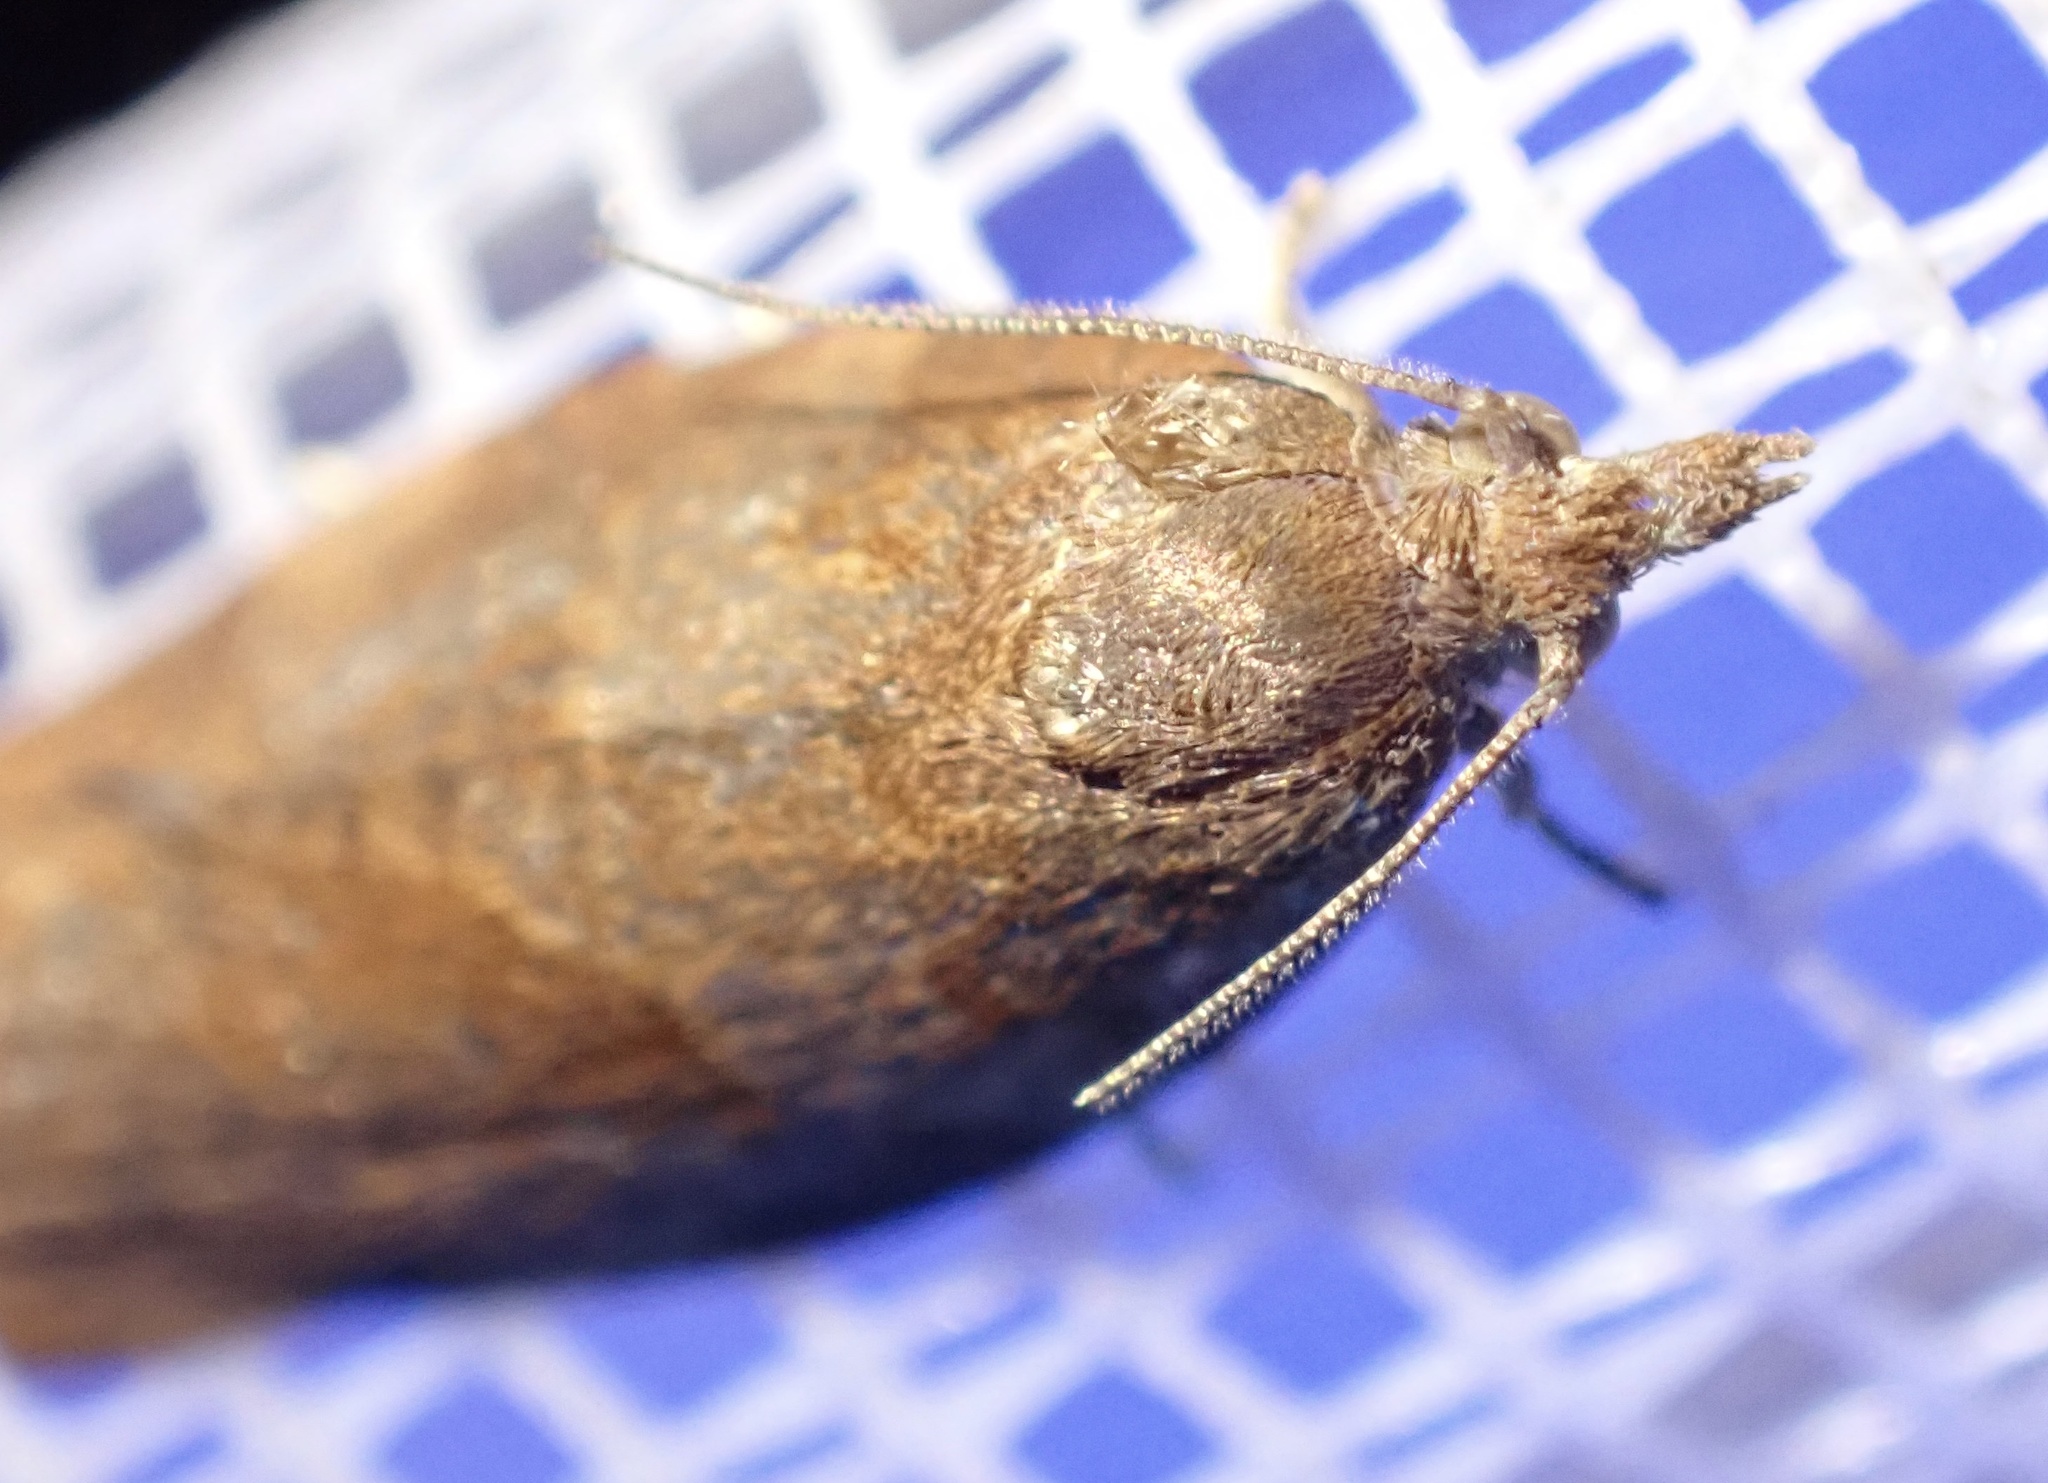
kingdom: Animalia
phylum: Arthropoda
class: Insecta
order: Lepidoptera
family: Tortricidae
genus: Pandemis
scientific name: Pandemis heparana
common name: Dark fruit-tree tortrix
